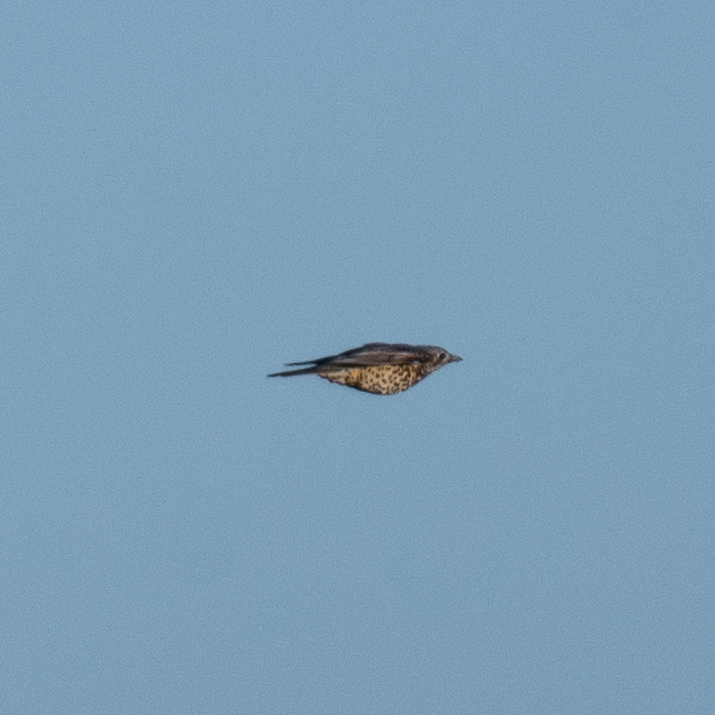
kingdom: Animalia
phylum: Chordata
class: Aves
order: Passeriformes
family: Turdidae
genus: Turdus
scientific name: Turdus viscivorus
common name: Mistle thrush
